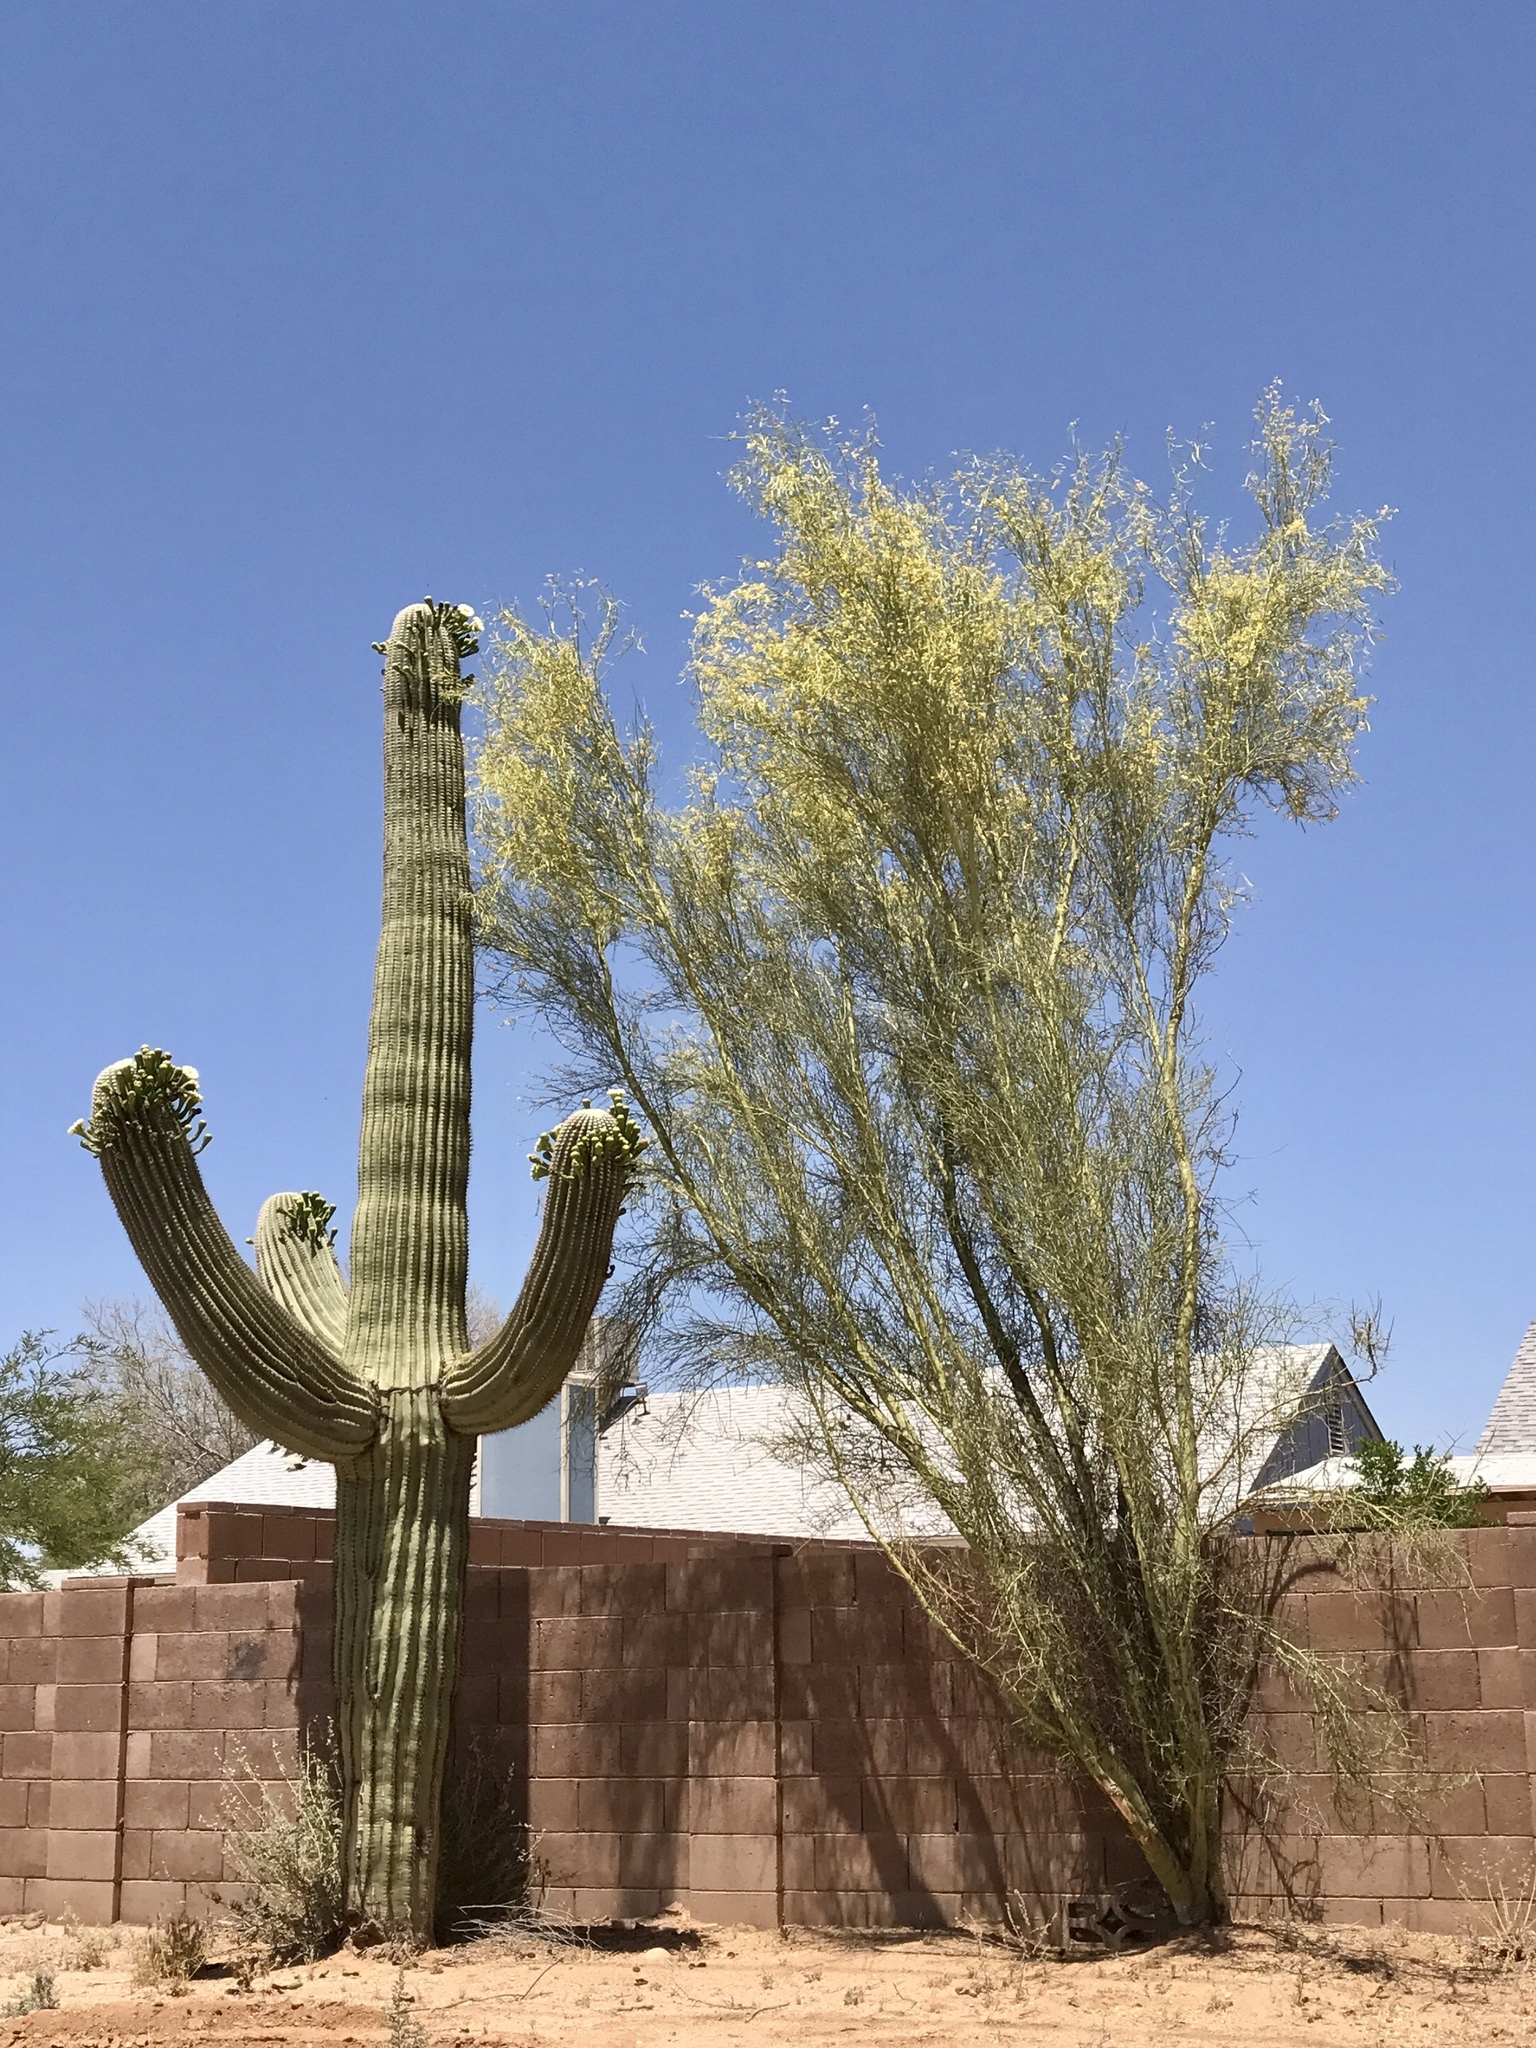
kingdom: Plantae
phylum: Tracheophyta
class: Magnoliopsida
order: Caryophyllales
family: Cactaceae
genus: Carnegiea
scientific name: Carnegiea gigantea
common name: Saguaro
